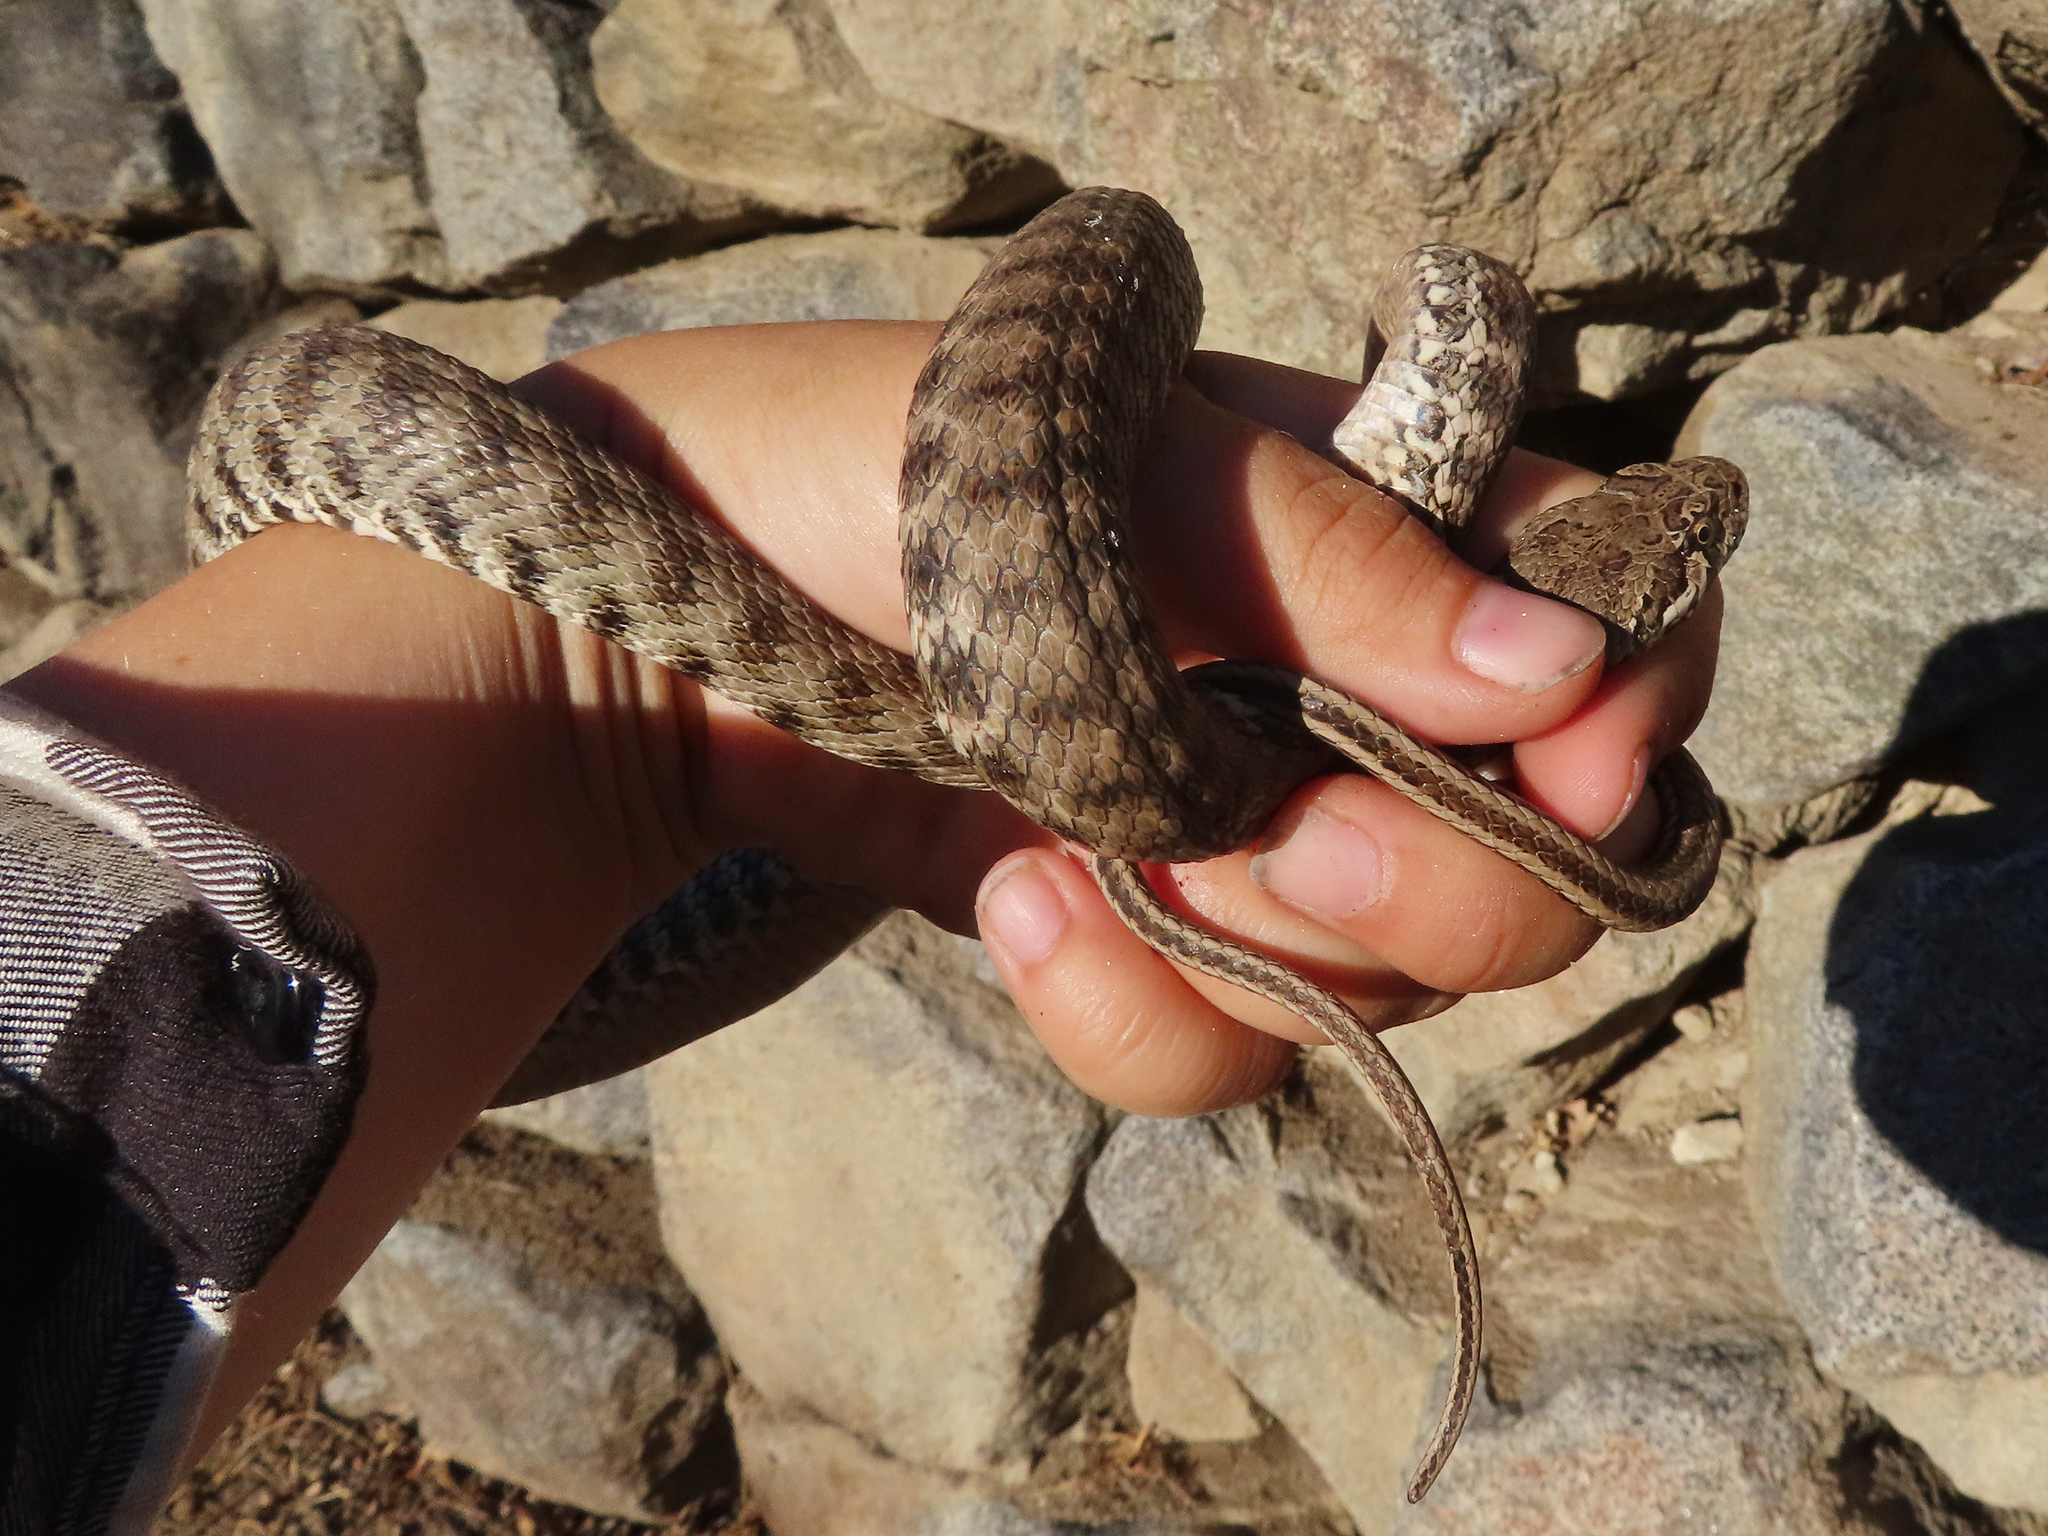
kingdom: Animalia
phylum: Chordata
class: Squamata
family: Colubridae
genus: Hemorrhois
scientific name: Hemorrhois ravergieri
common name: Spotted whip snake
